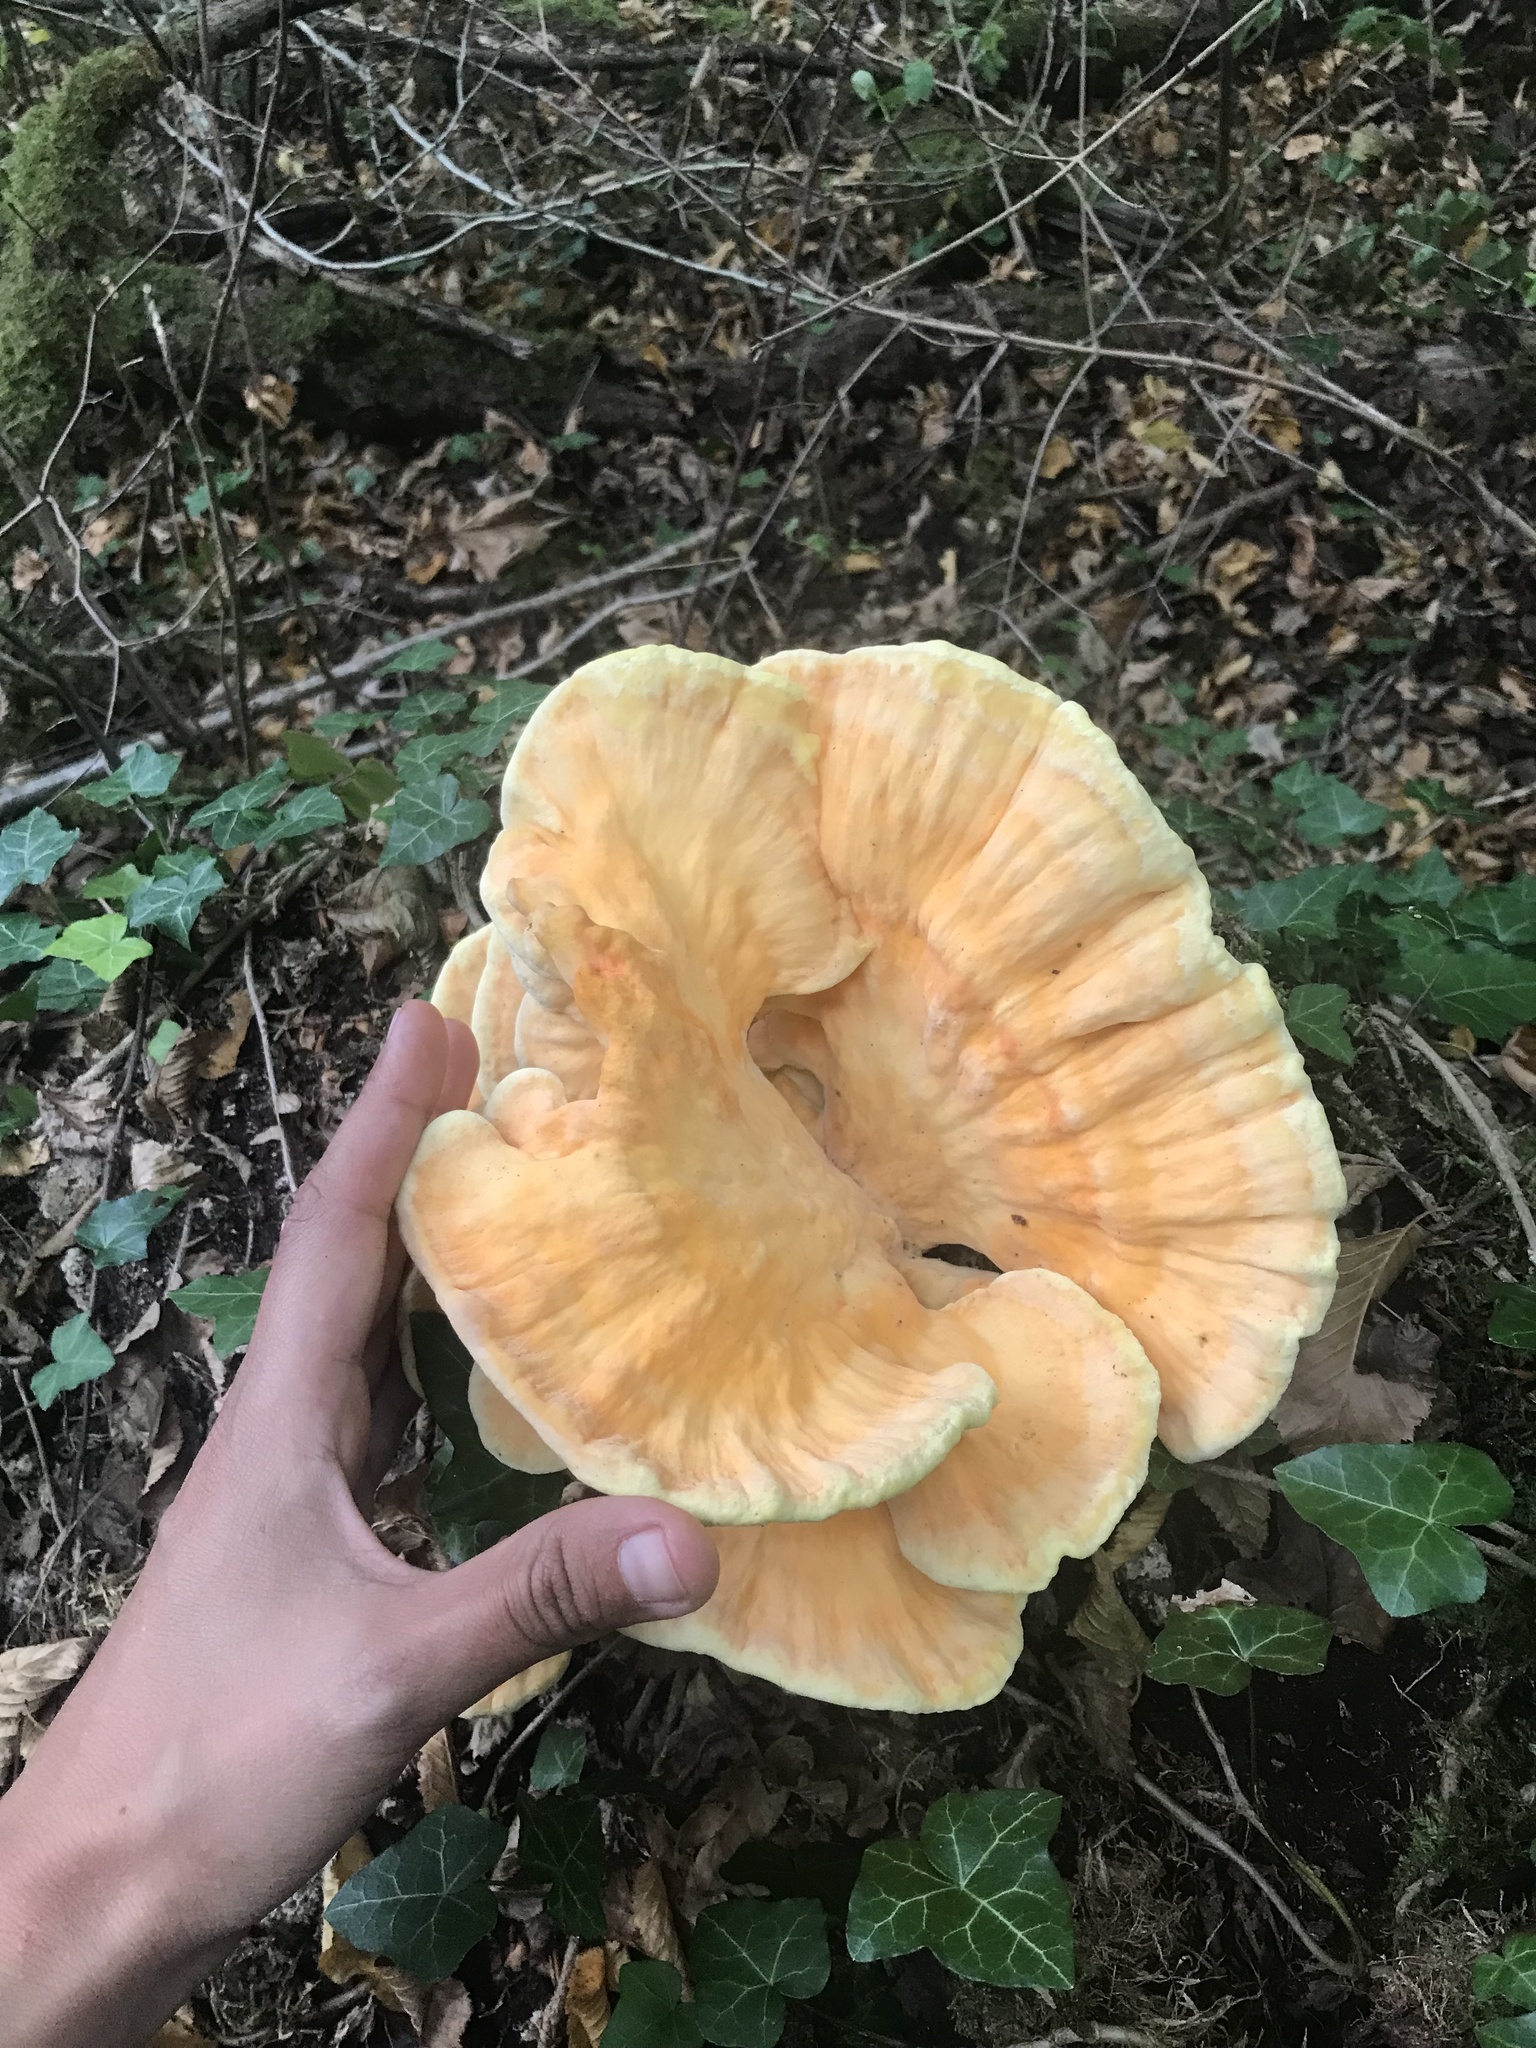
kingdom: Fungi
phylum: Basidiomycota
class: Agaricomycetes
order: Polyporales
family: Laetiporaceae
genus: Laetiporus
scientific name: Laetiporus sulphureus
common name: Chicken of the woods
